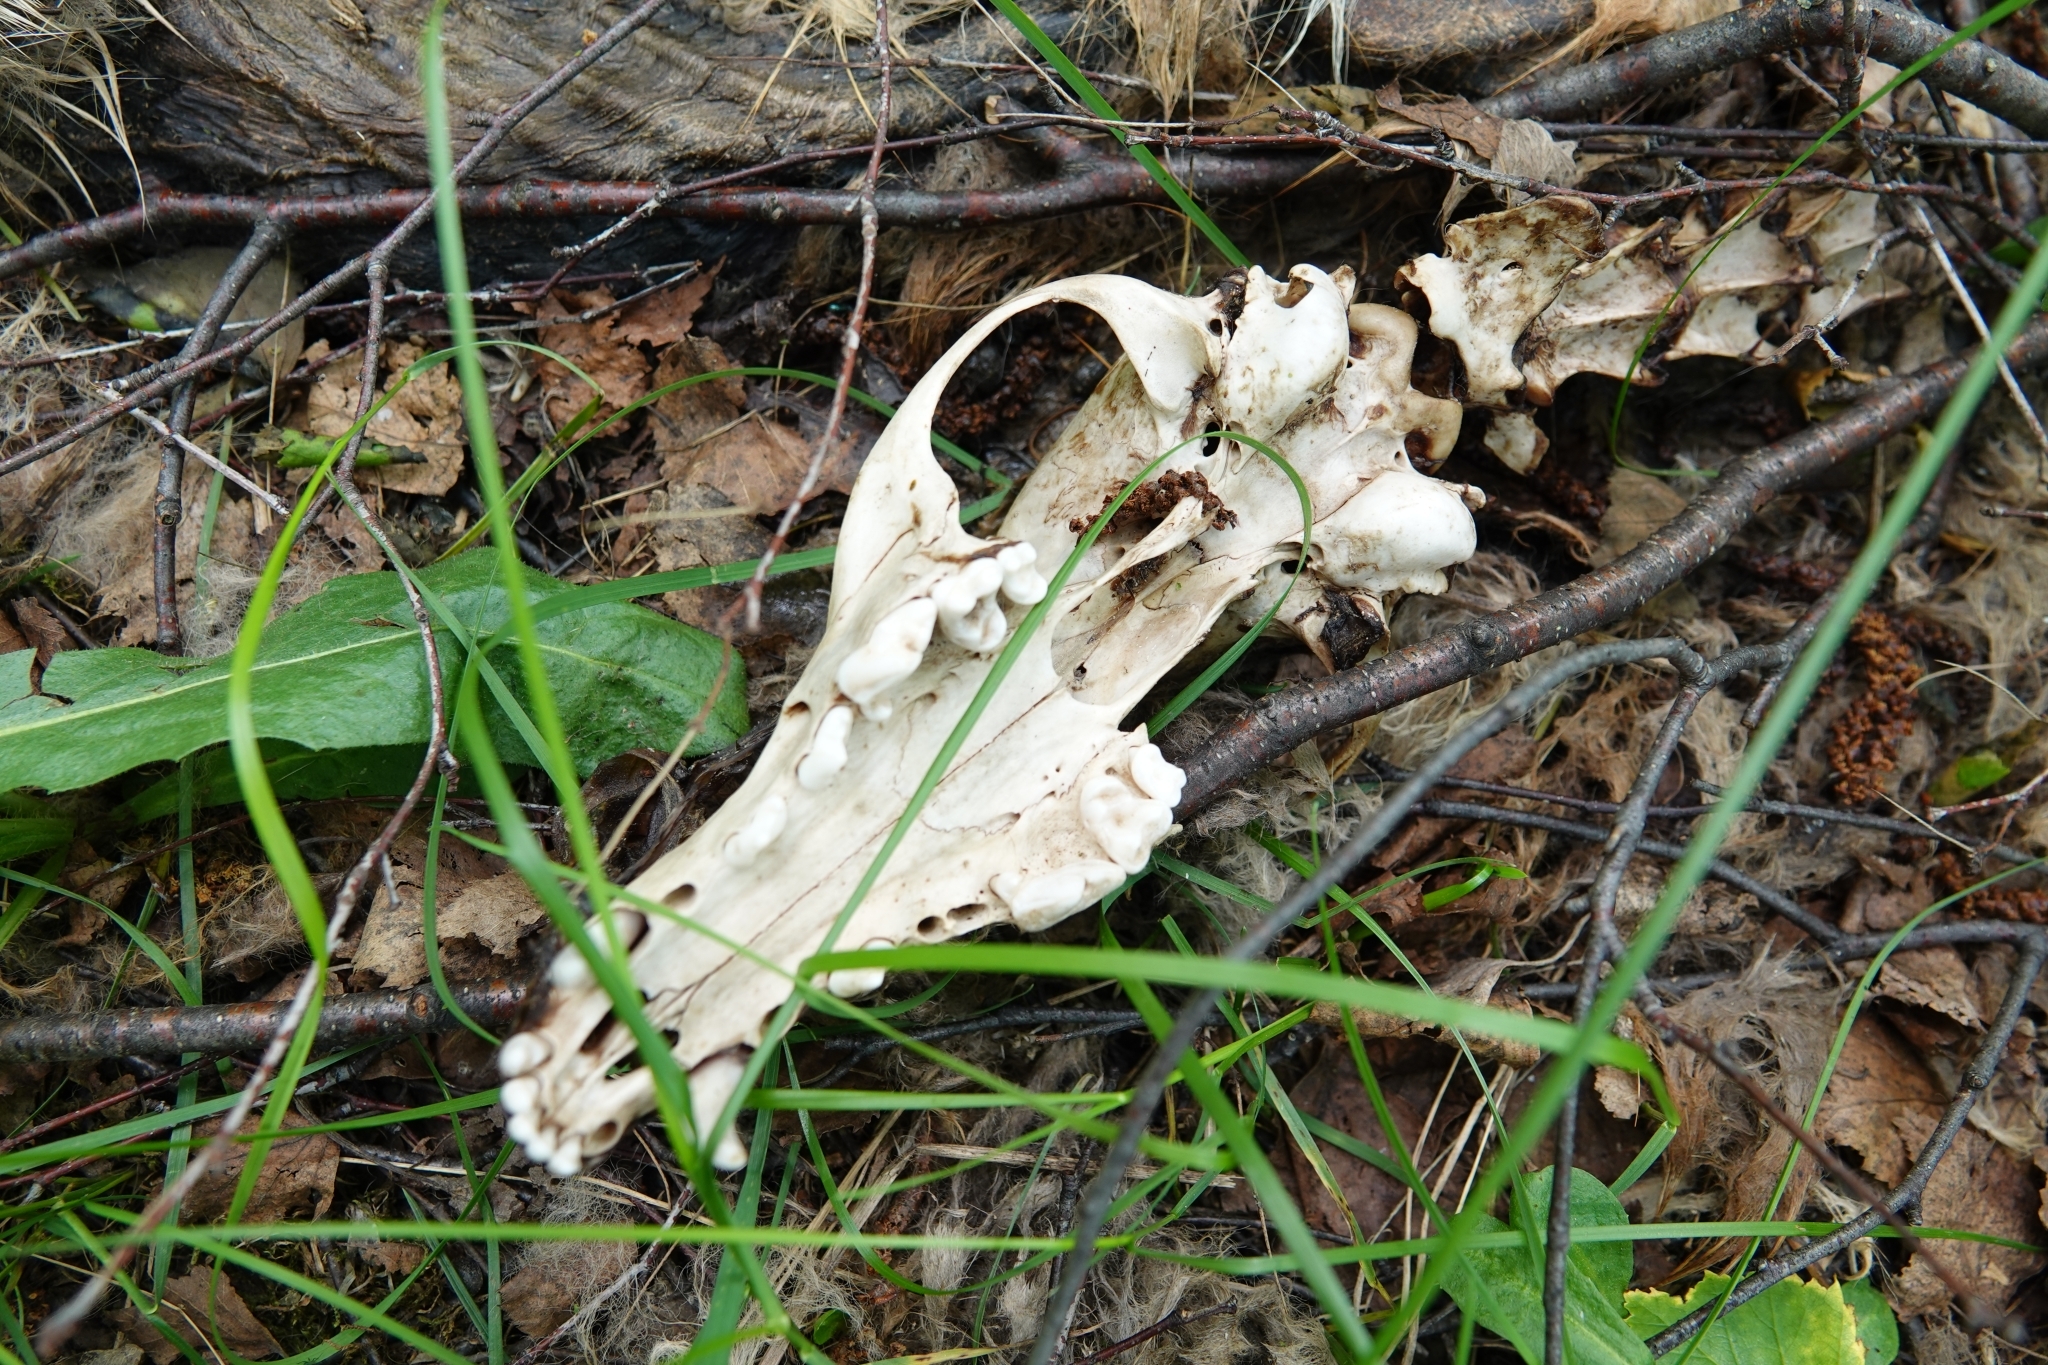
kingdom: Animalia
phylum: Chordata
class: Mammalia
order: Carnivora
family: Canidae
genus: Vulpes
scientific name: Vulpes vulpes
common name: Red fox
